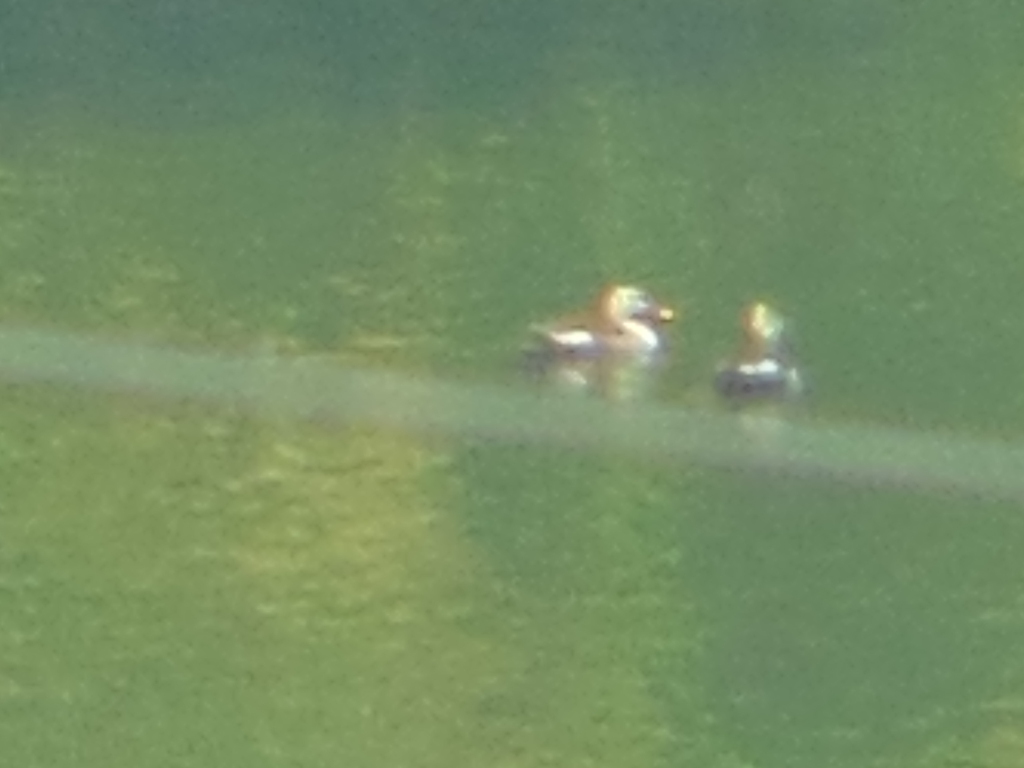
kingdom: Animalia
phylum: Chordata
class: Aves
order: Anseriformes
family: Anatidae
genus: Anas
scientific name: Anas poecilorhyncha
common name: Indian spot-billed duck
